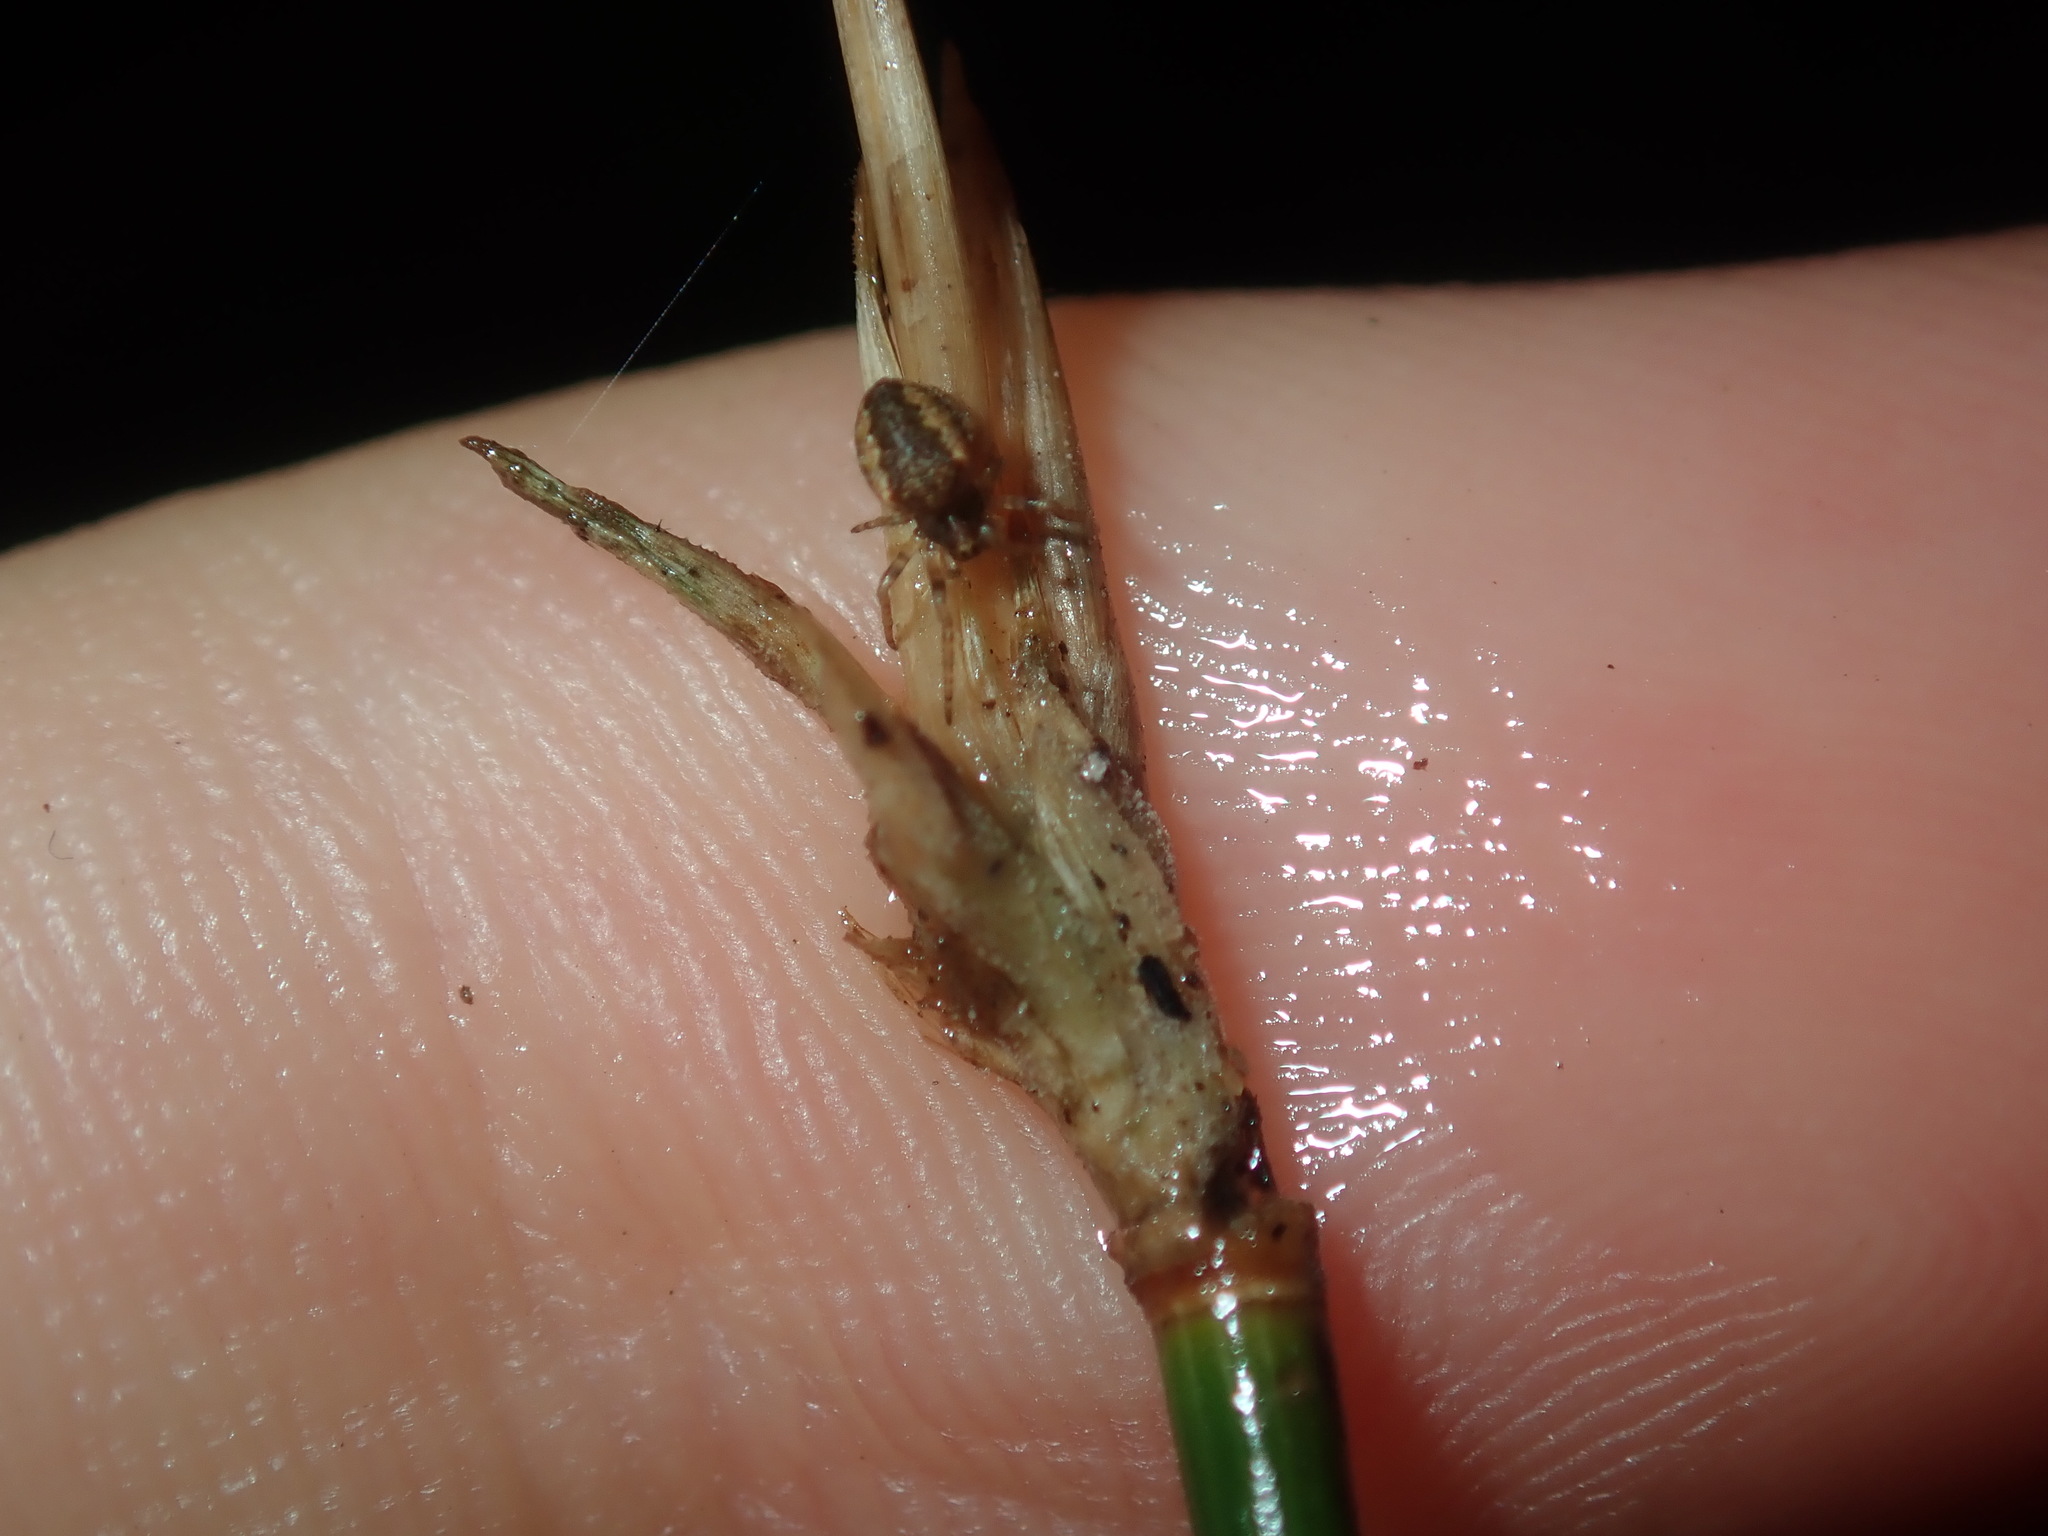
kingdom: Plantae
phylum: Tracheophyta
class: Liliopsida
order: Poales
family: Poaceae
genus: Entolasia
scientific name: Entolasia stricta
